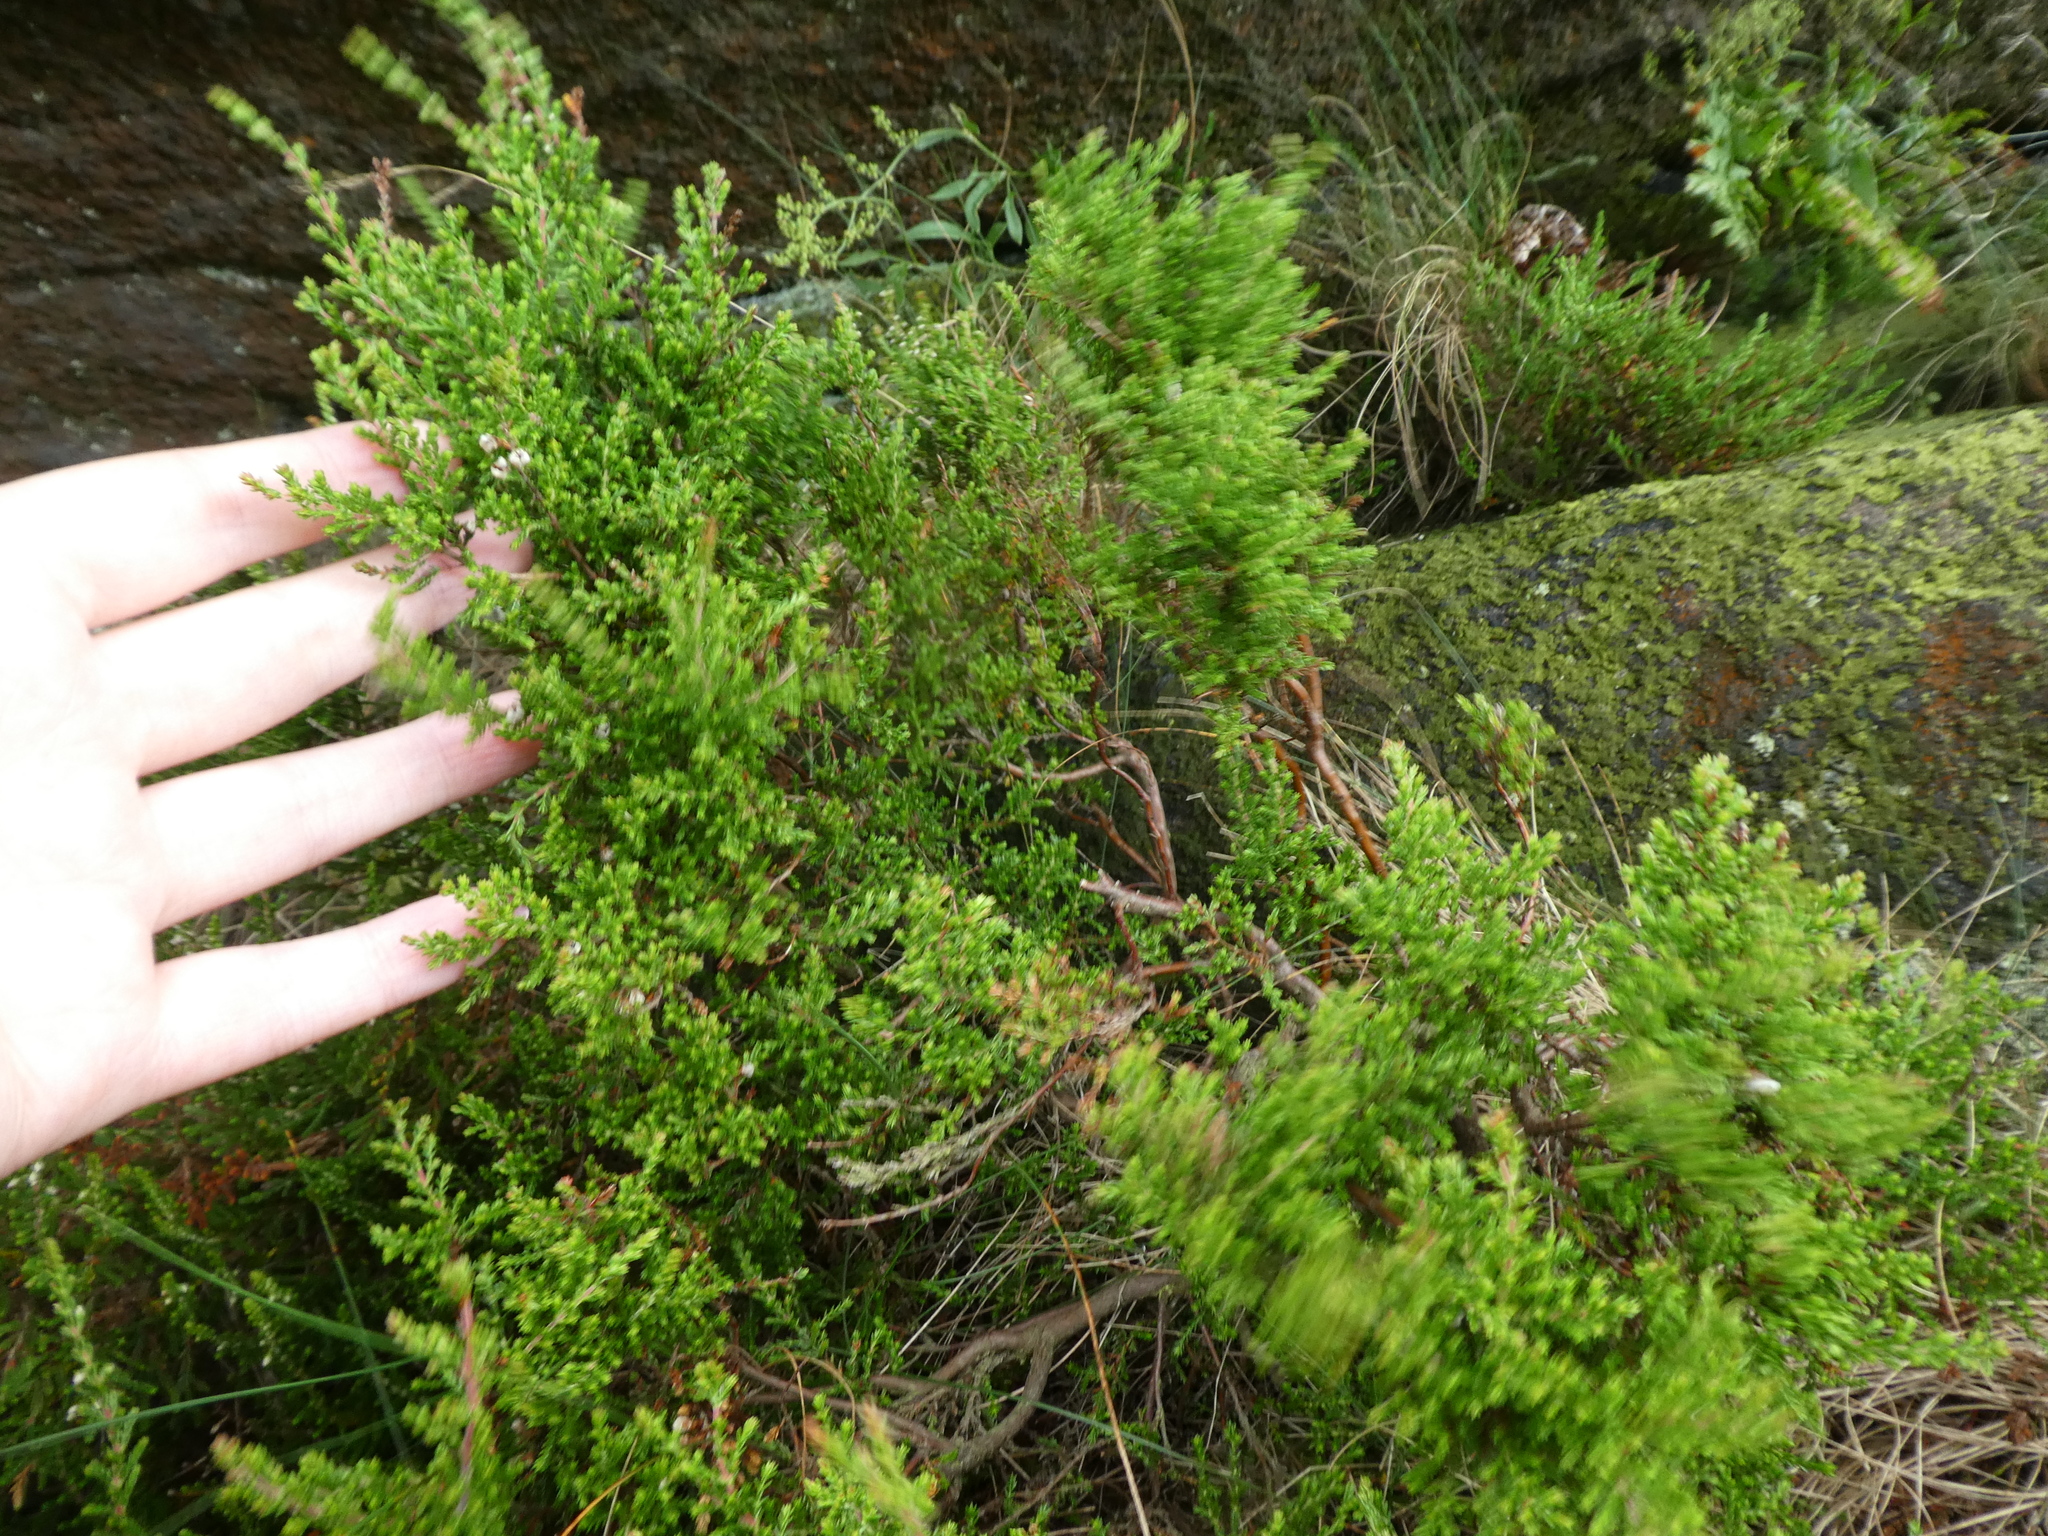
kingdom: Plantae
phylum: Tracheophyta
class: Magnoliopsida
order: Ericales
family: Ericaceae
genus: Calluna
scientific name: Calluna vulgaris
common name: Heather
